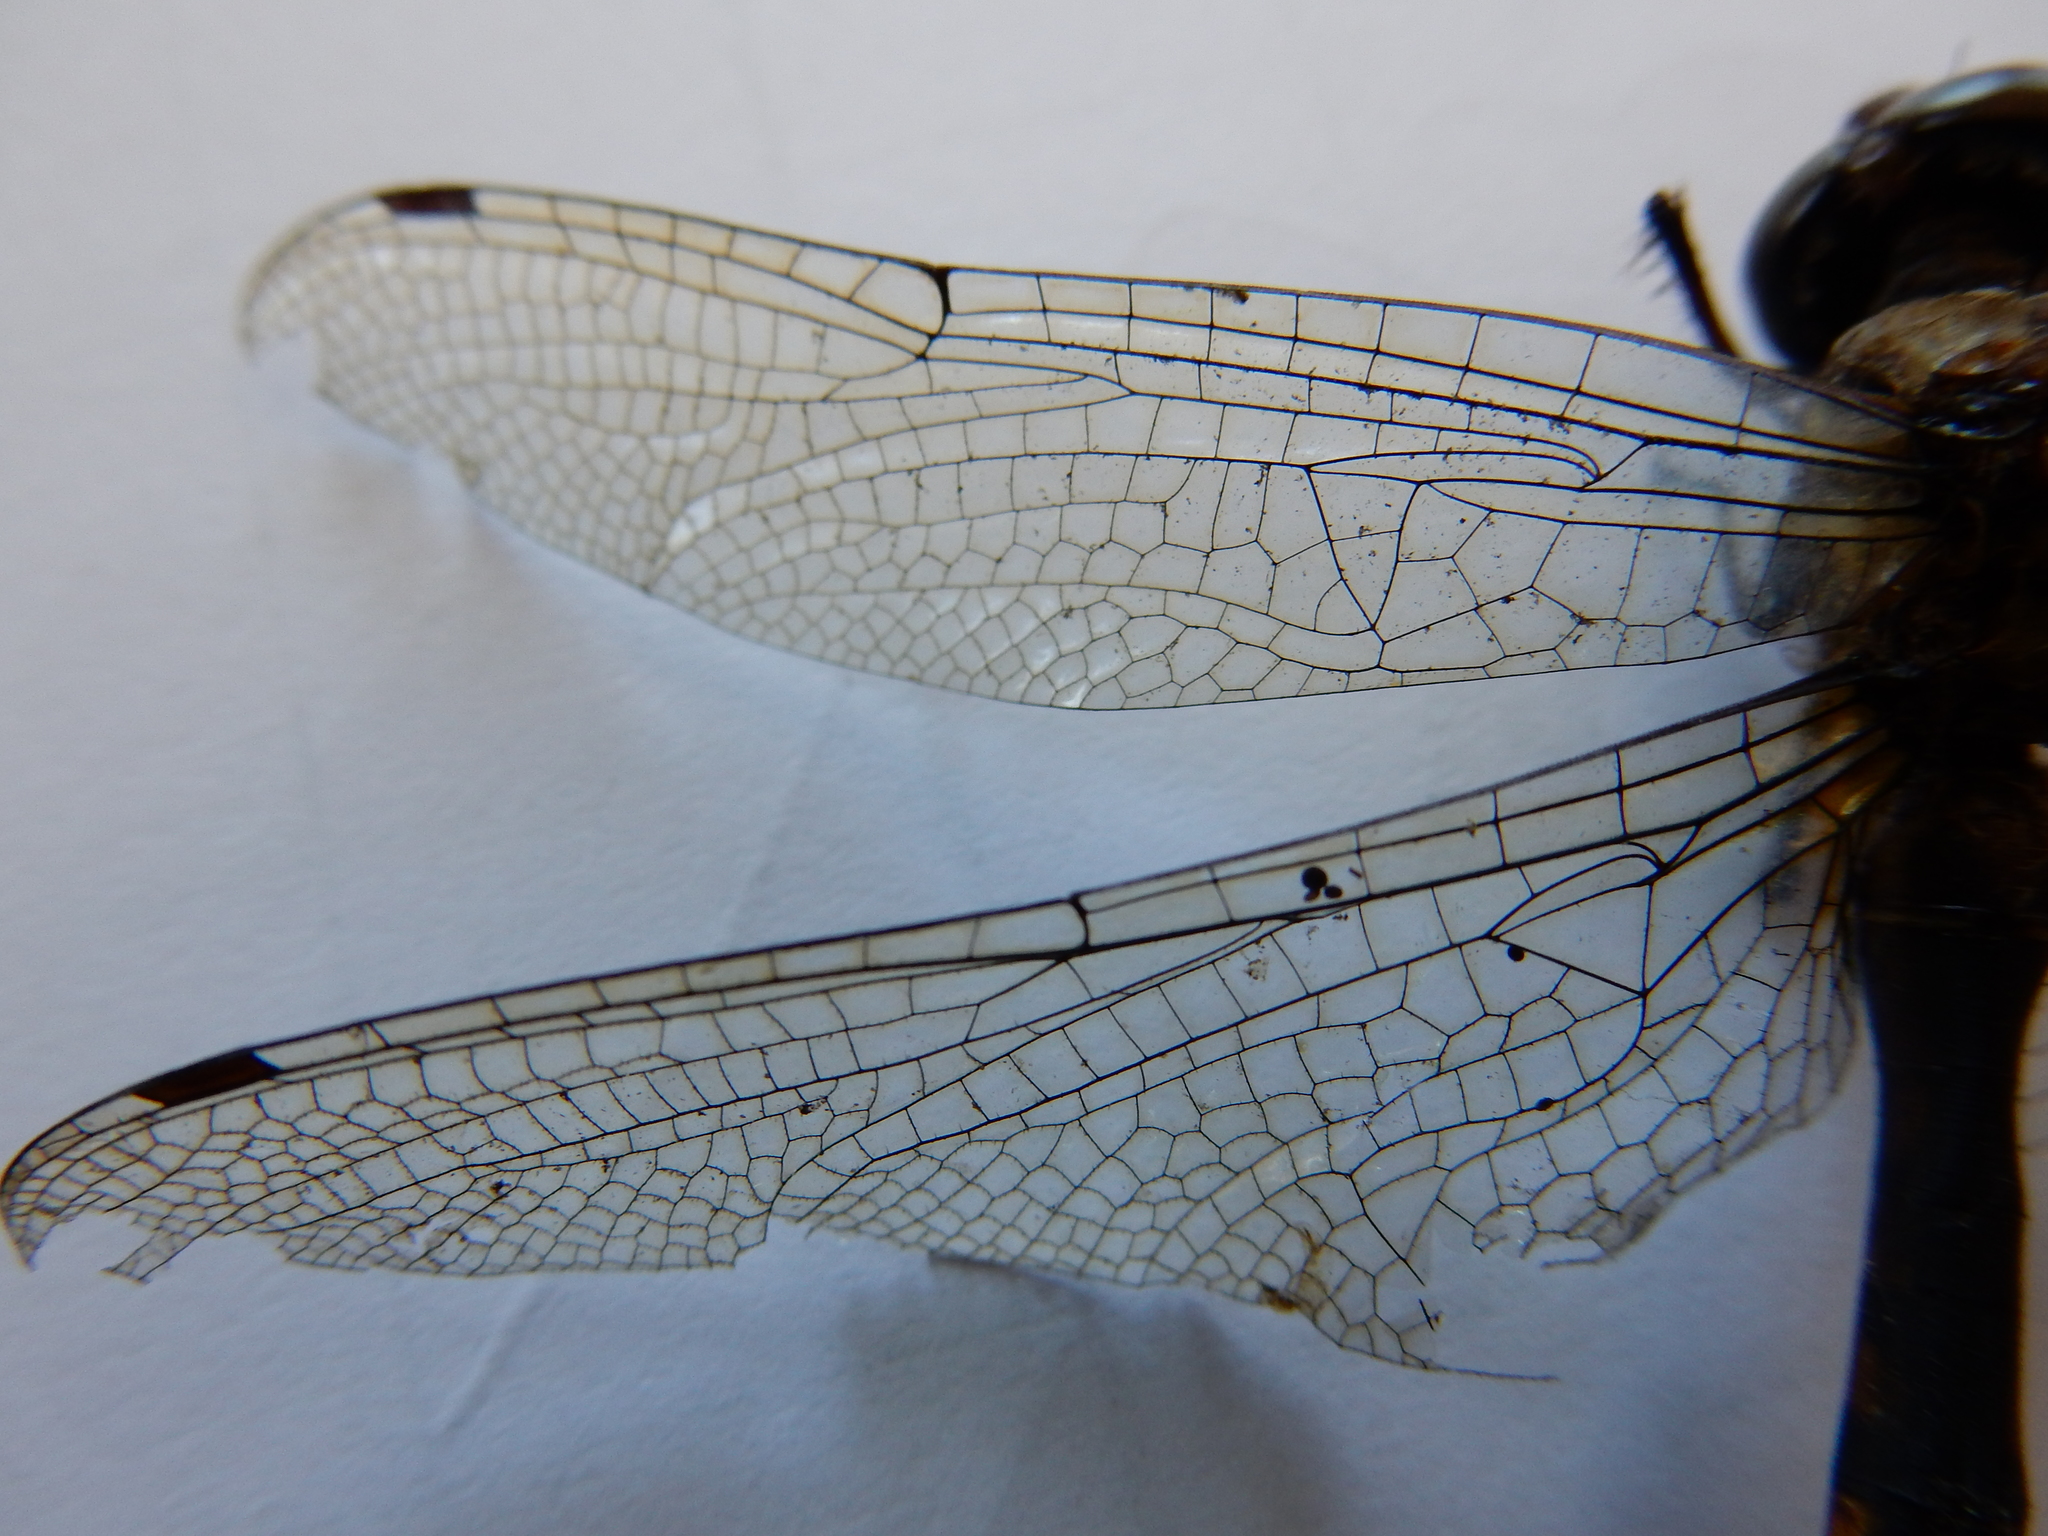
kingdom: Animalia
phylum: Arthropoda
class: Insecta
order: Odonata
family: Corduliidae
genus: Hemicordulia
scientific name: Hemicordulia armstrongi
